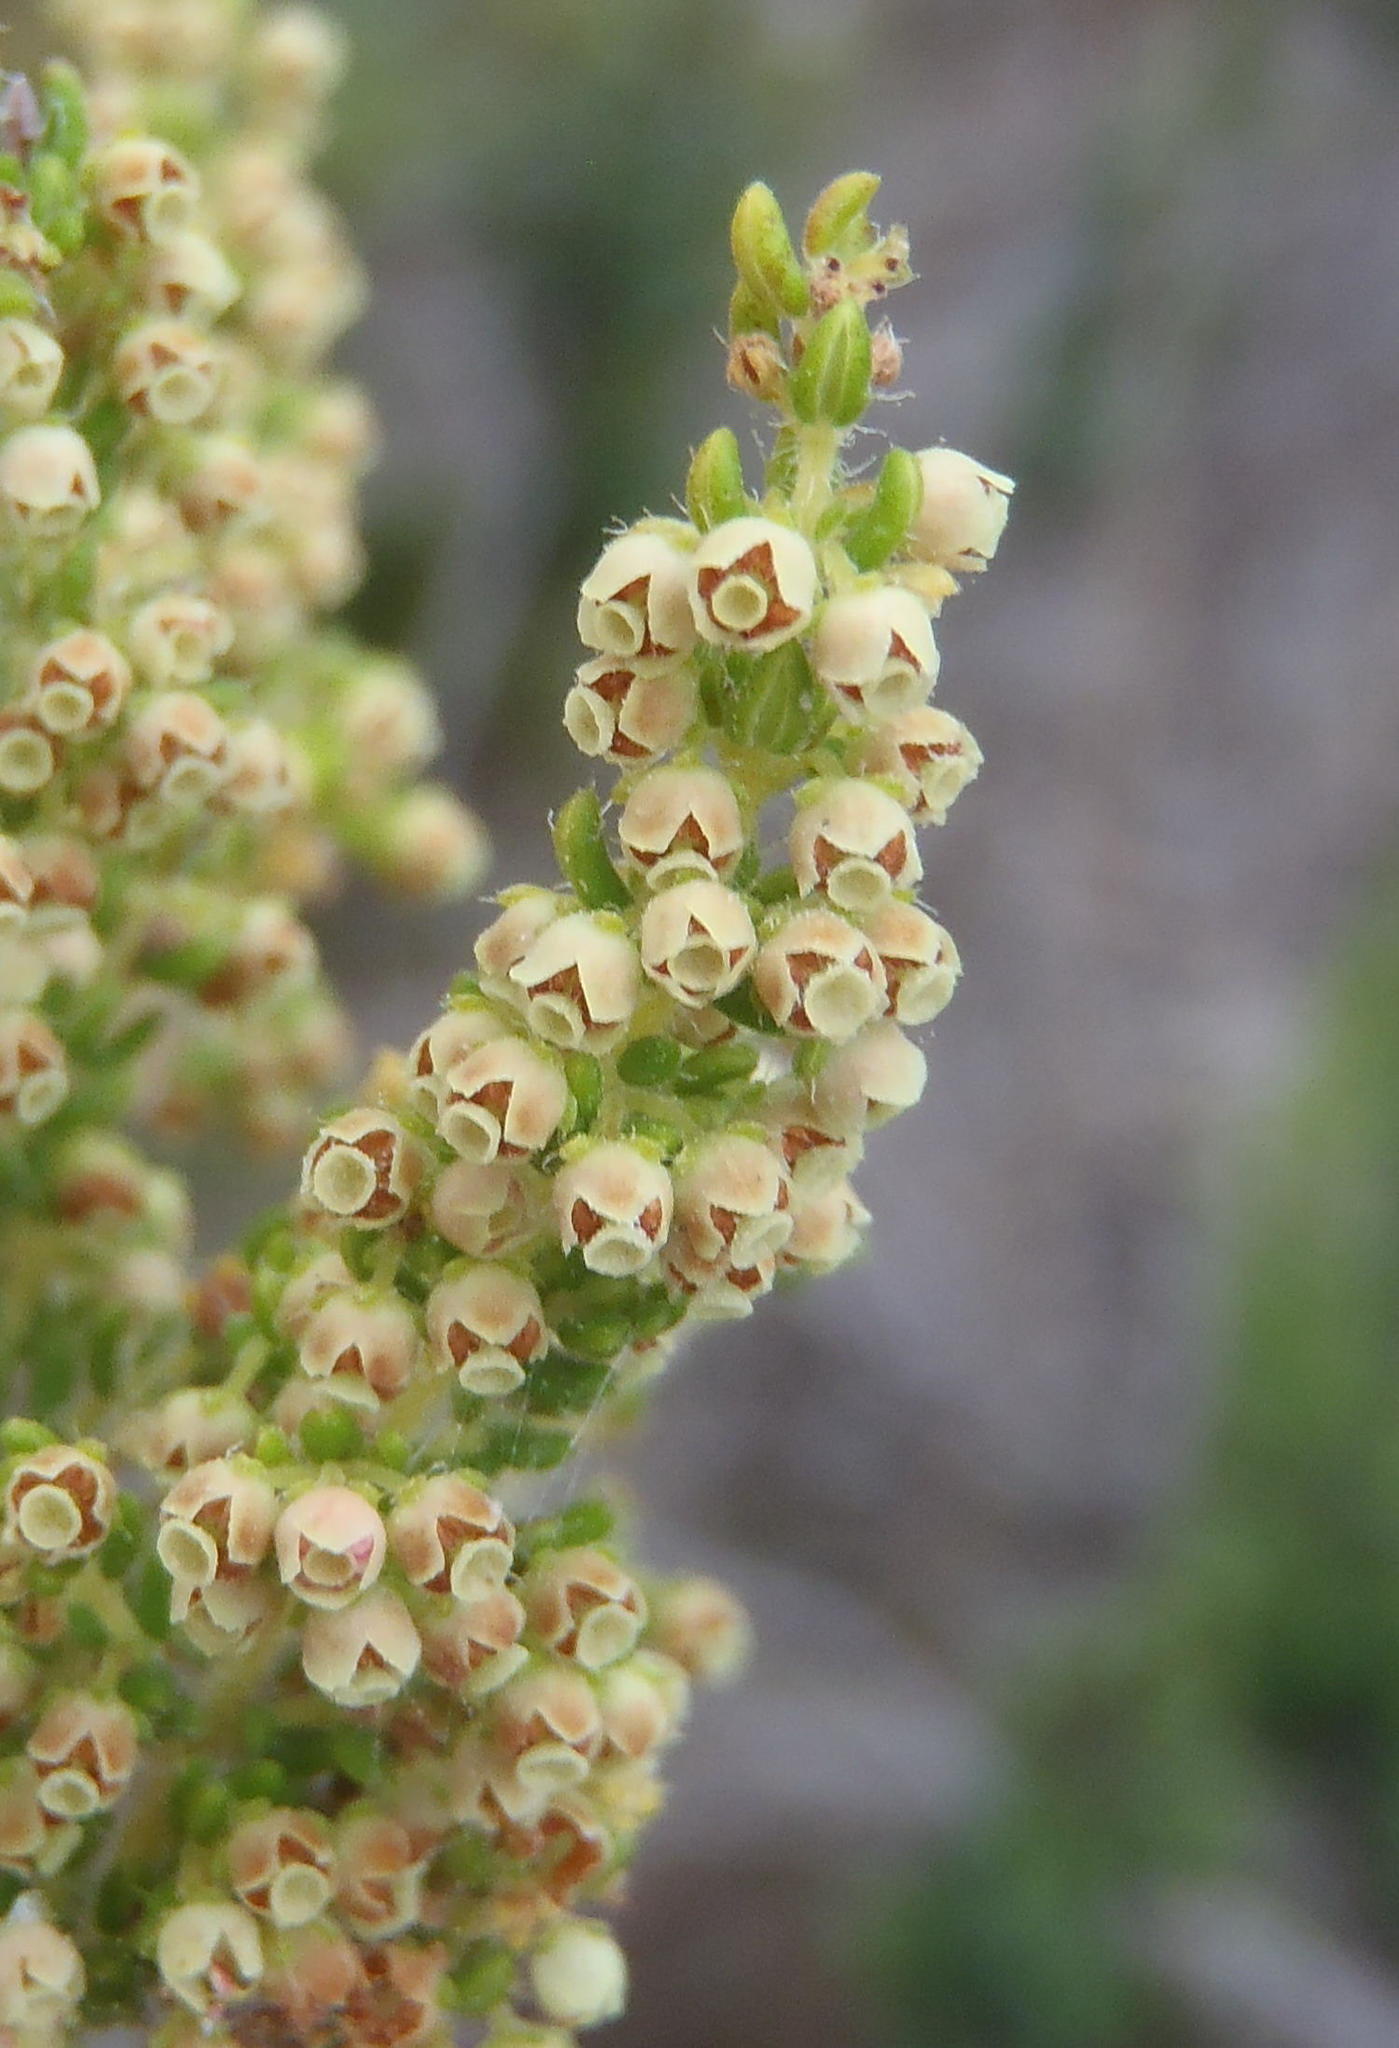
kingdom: Plantae
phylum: Tracheophyta
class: Magnoliopsida
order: Ericales
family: Ericaceae
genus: Erica
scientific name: Erica leucopelta
